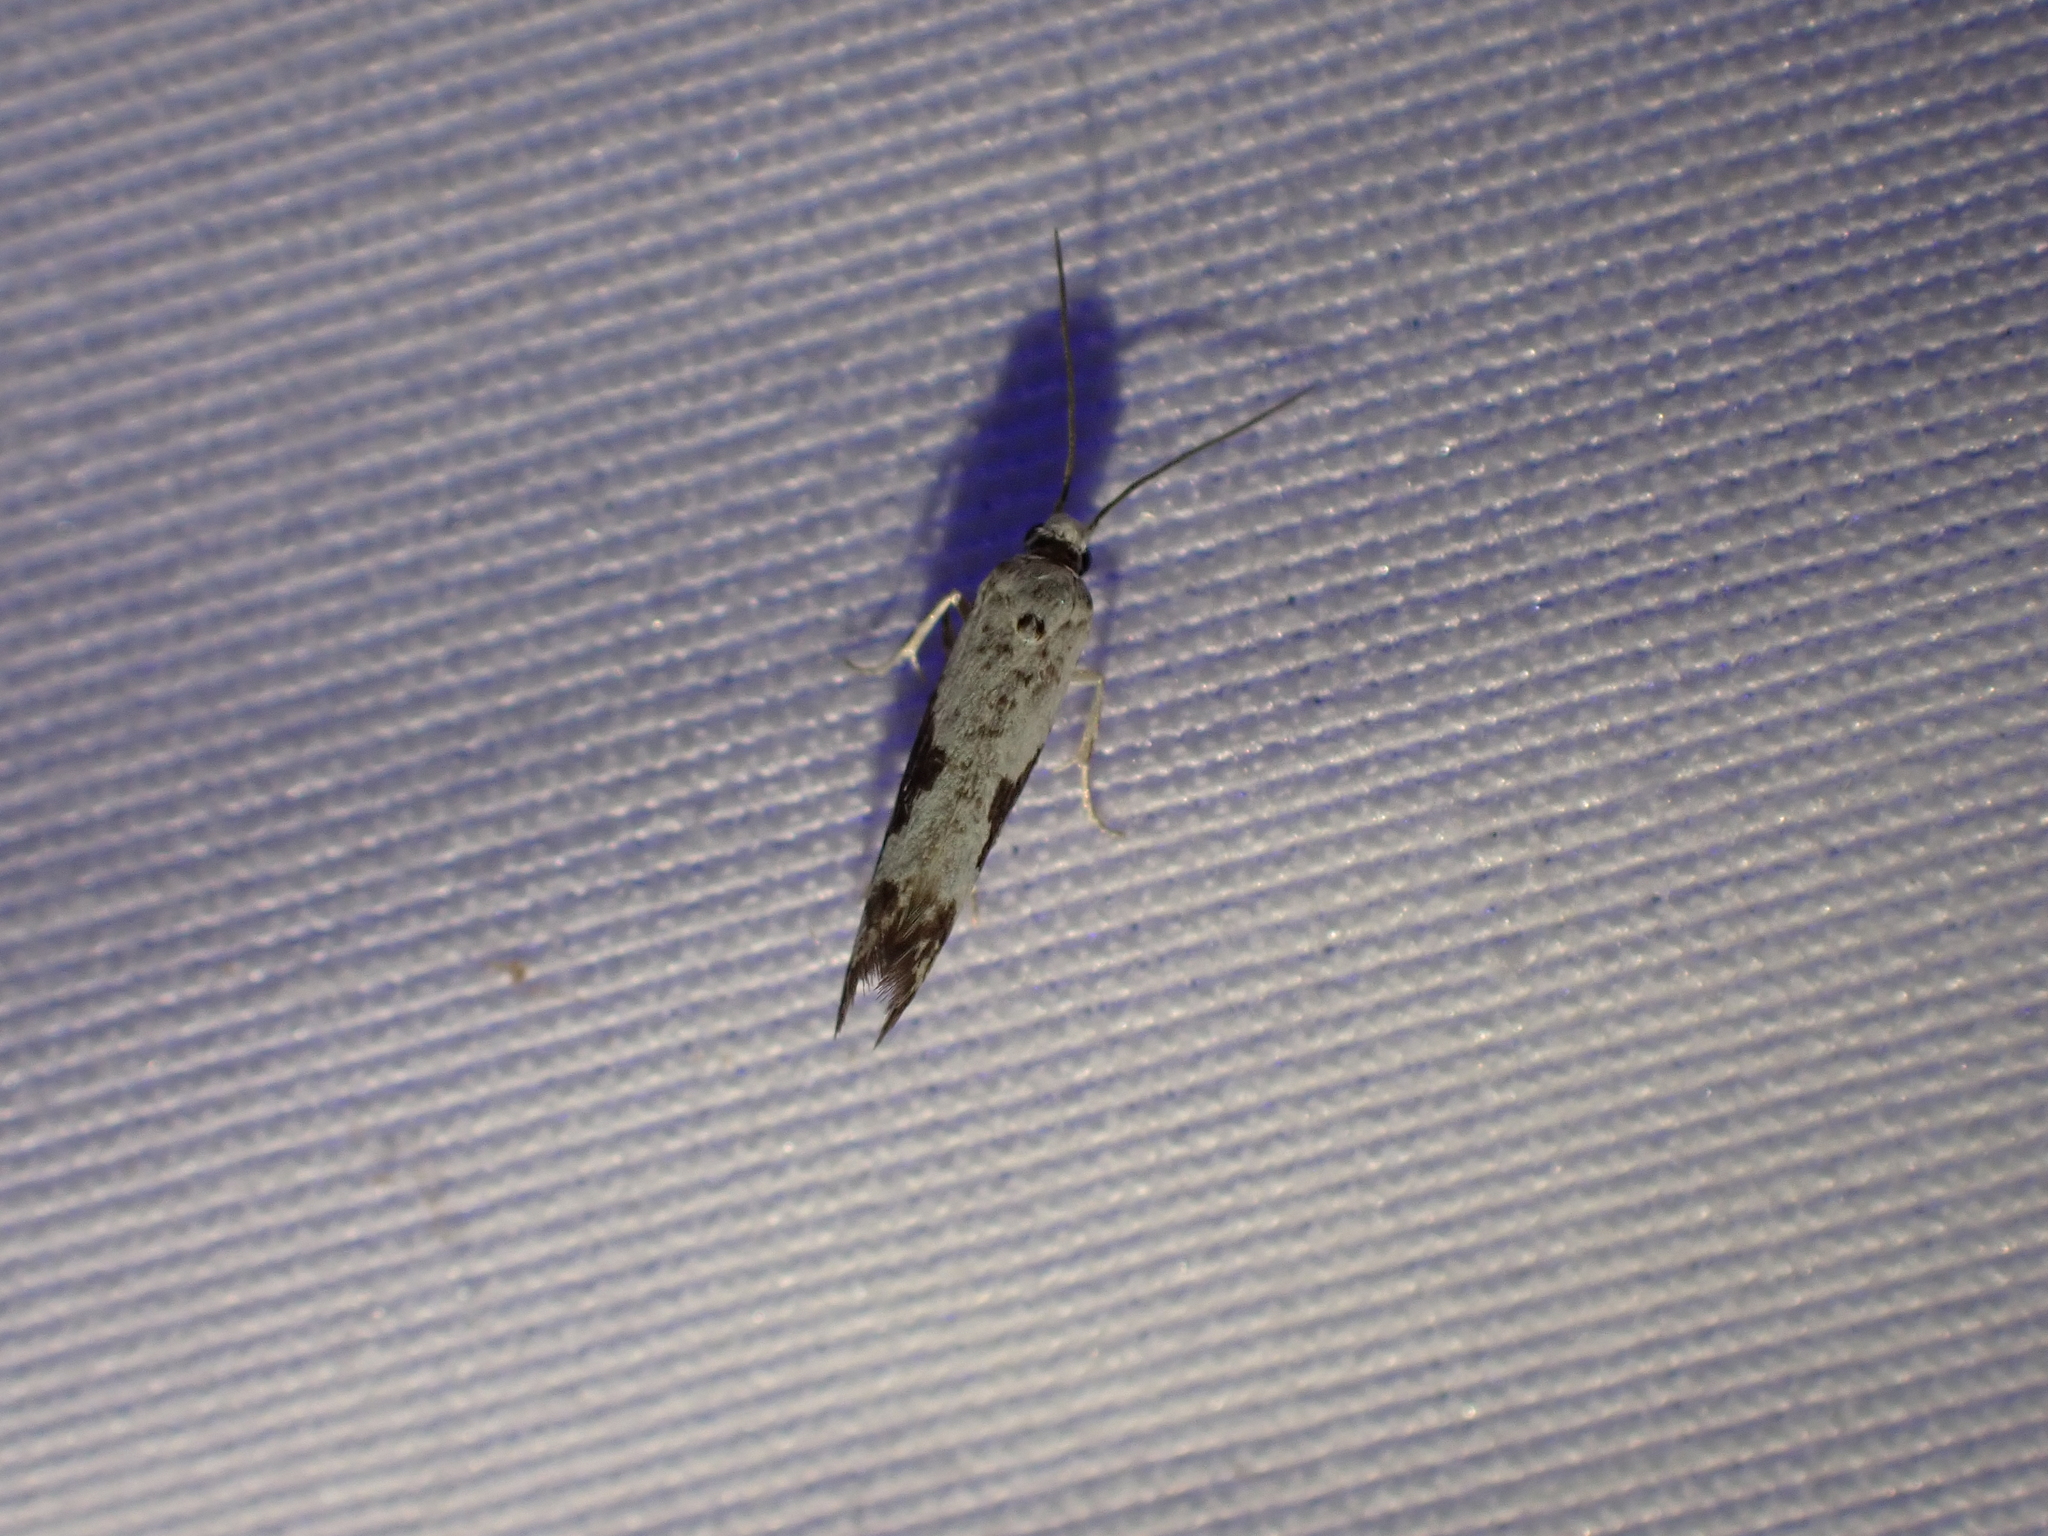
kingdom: Animalia
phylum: Arthropoda
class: Insecta
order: Lepidoptera
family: Praydidae
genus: Prays
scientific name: Prays fraxinella
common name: Ash bud moth
